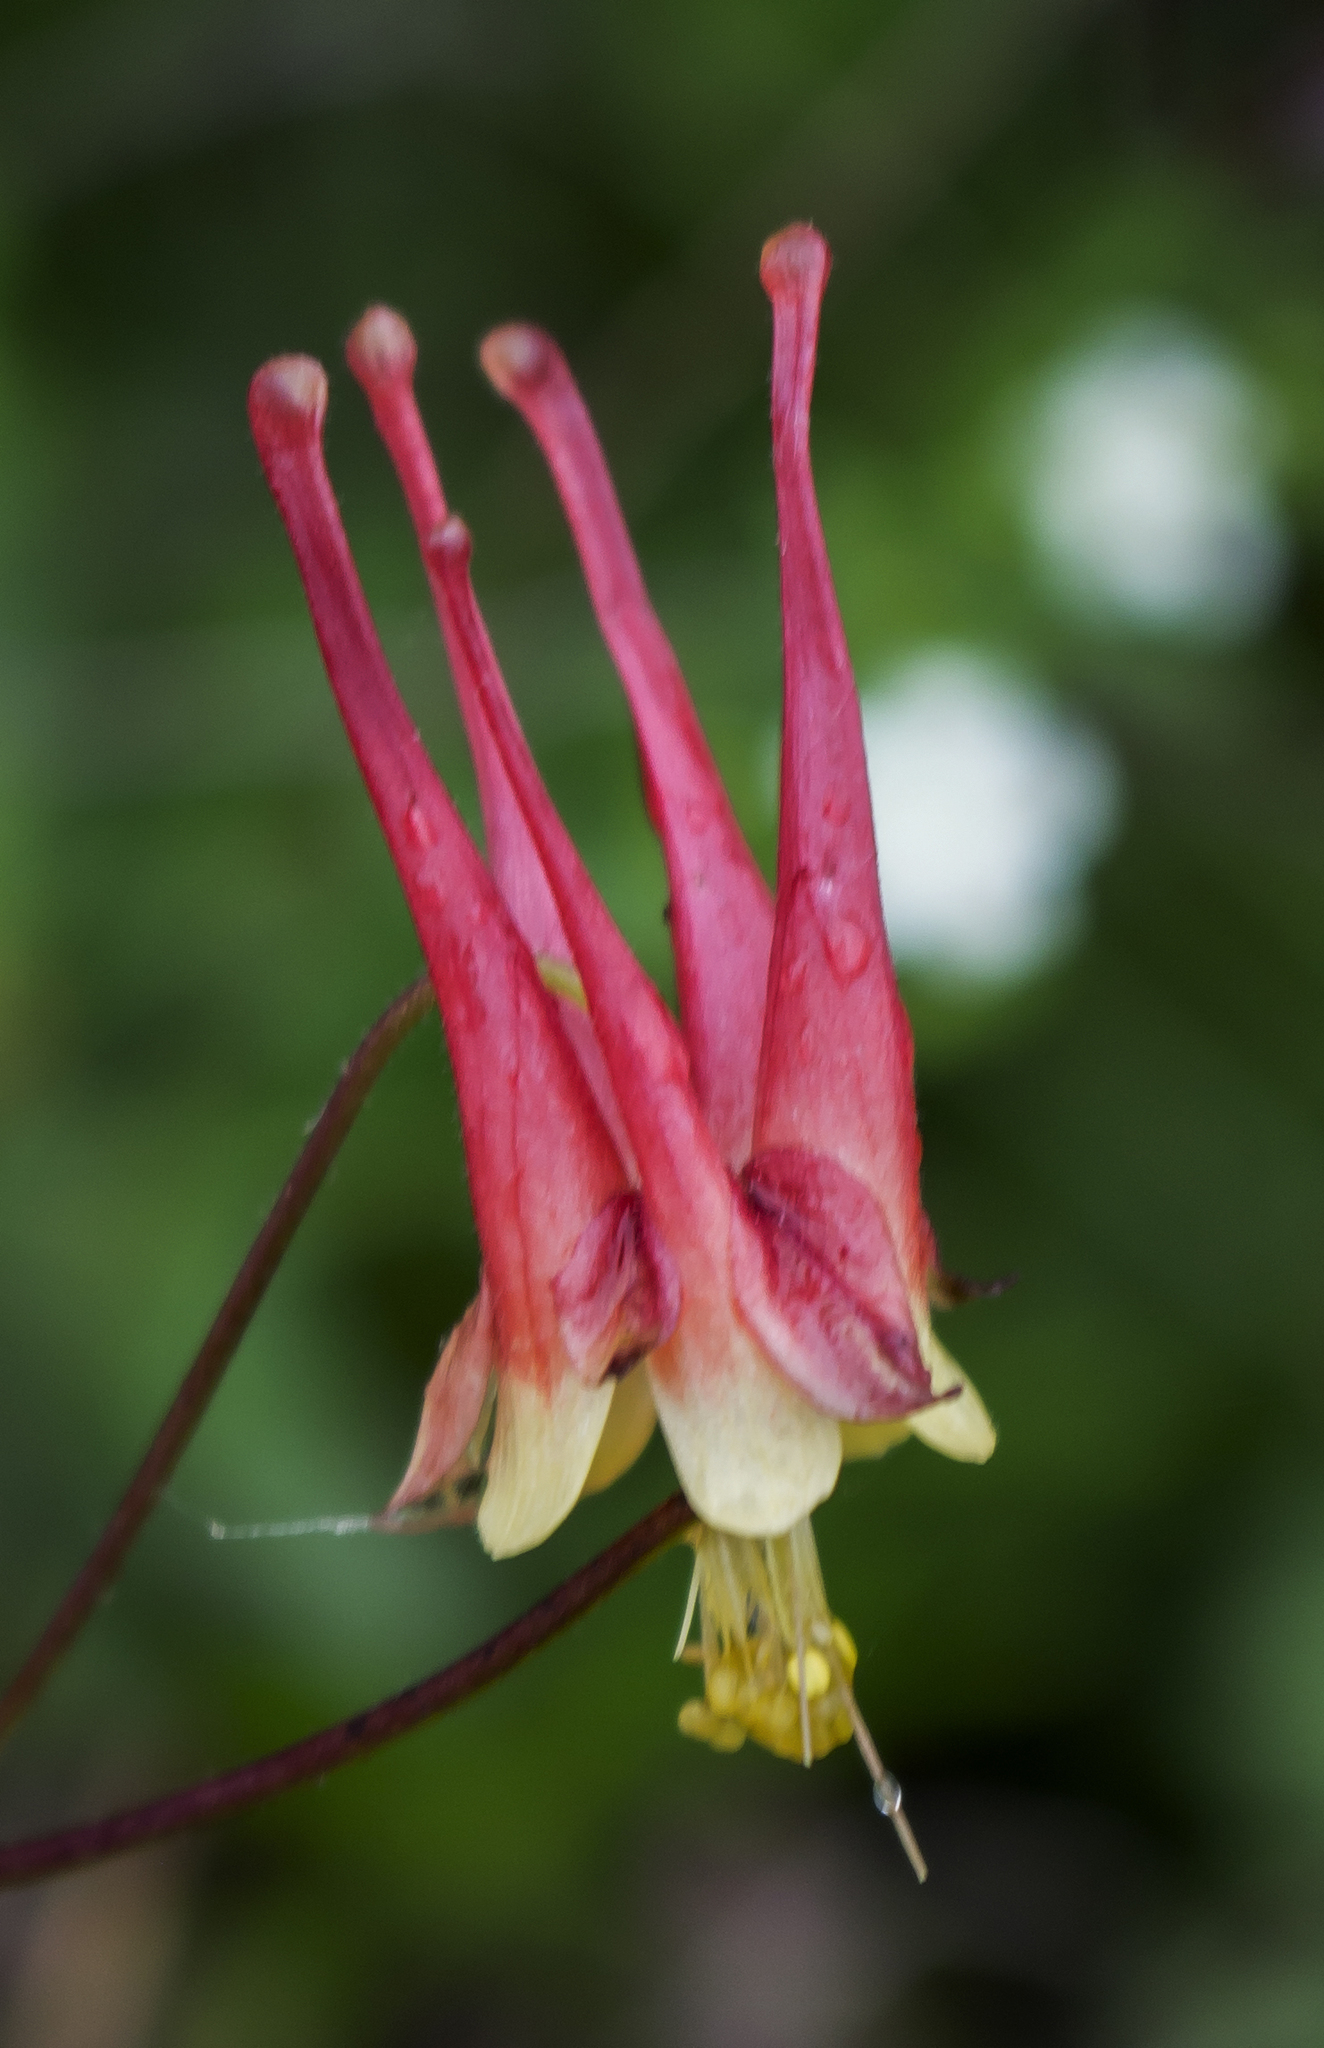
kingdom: Plantae
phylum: Tracheophyta
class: Magnoliopsida
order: Ranunculales
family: Ranunculaceae
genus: Aquilegia
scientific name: Aquilegia canadensis
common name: American columbine
